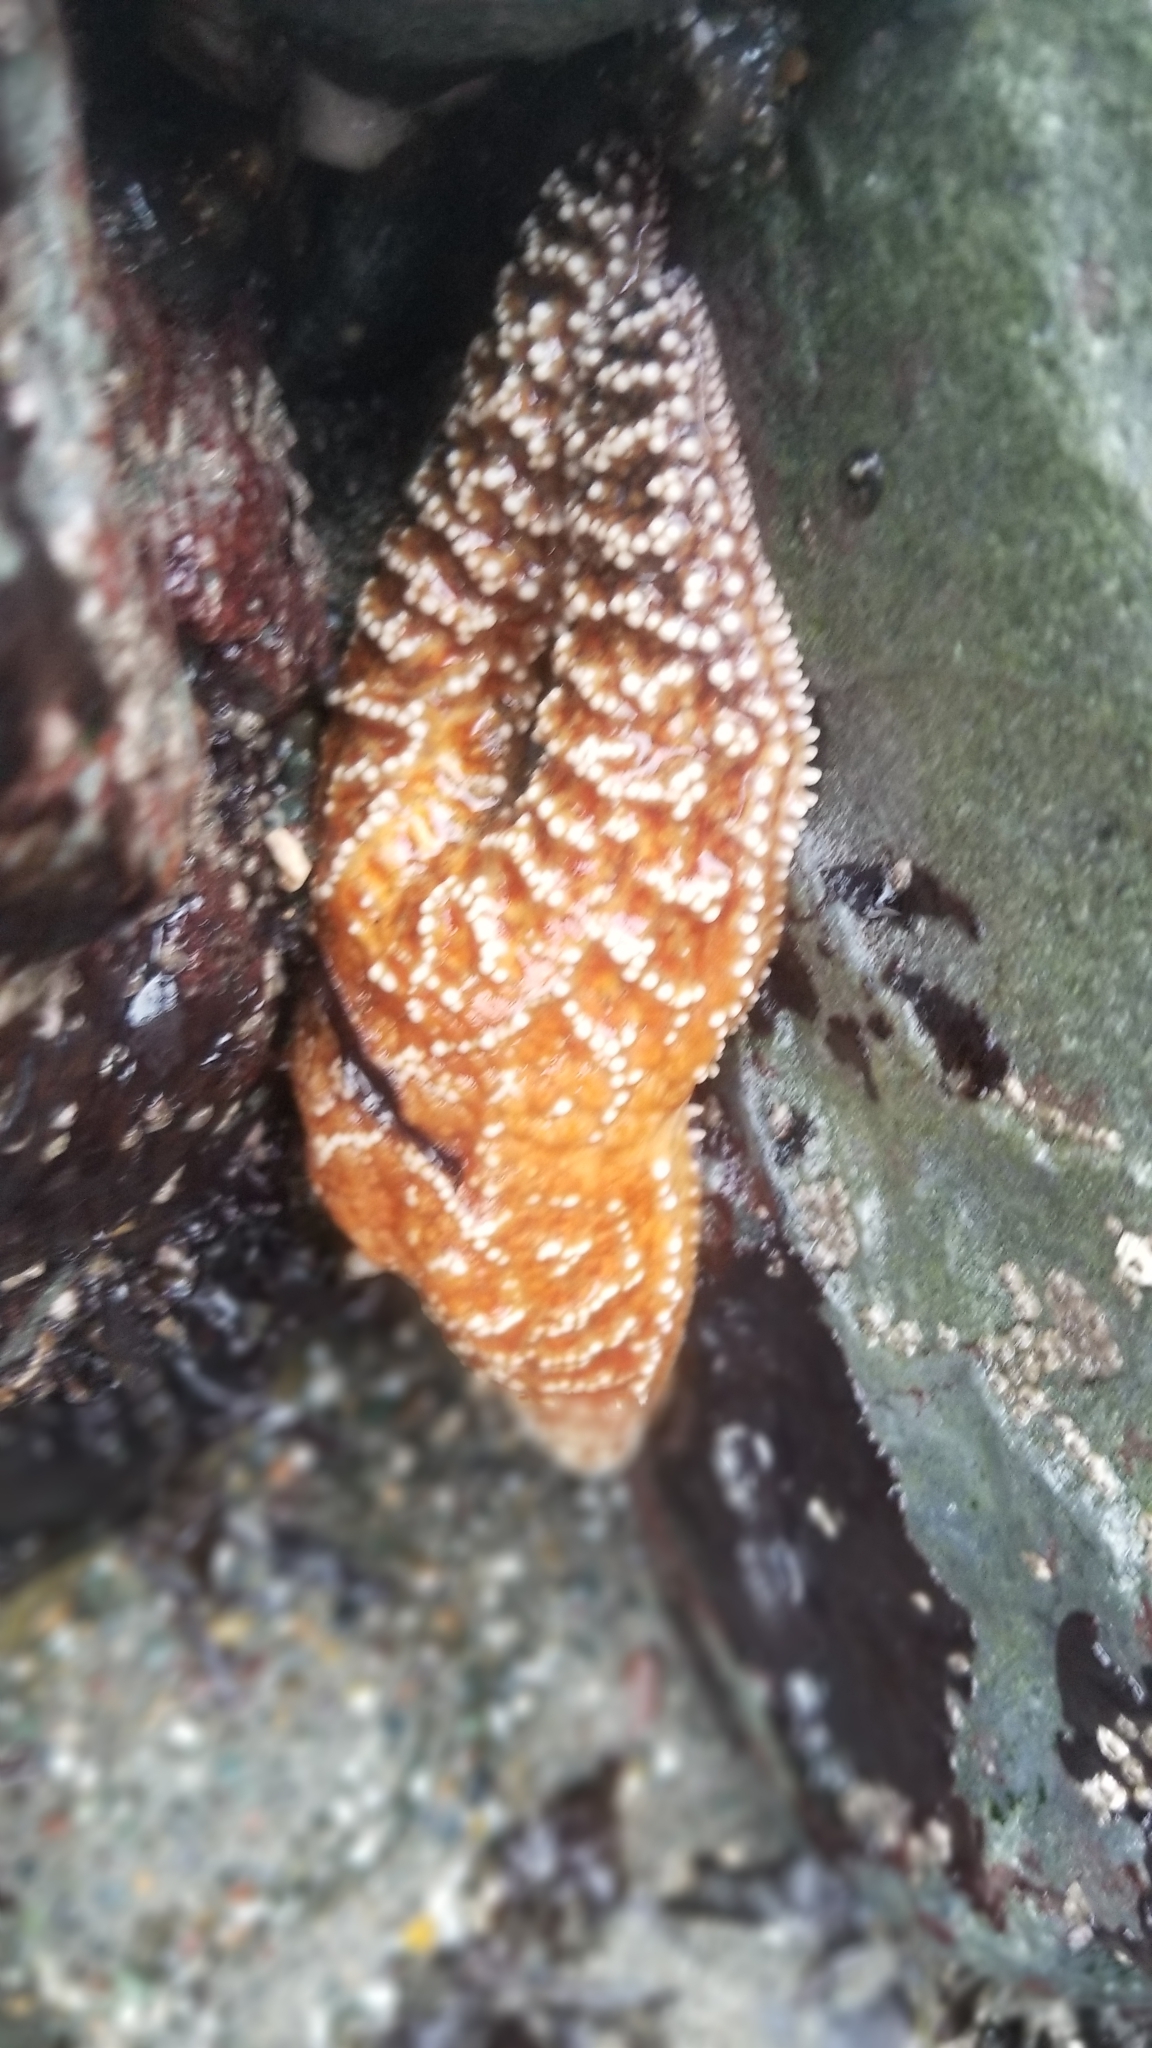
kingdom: Animalia
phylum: Echinodermata
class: Asteroidea
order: Forcipulatida
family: Asteriidae
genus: Pisaster
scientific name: Pisaster ochraceus
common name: Ochre stars
